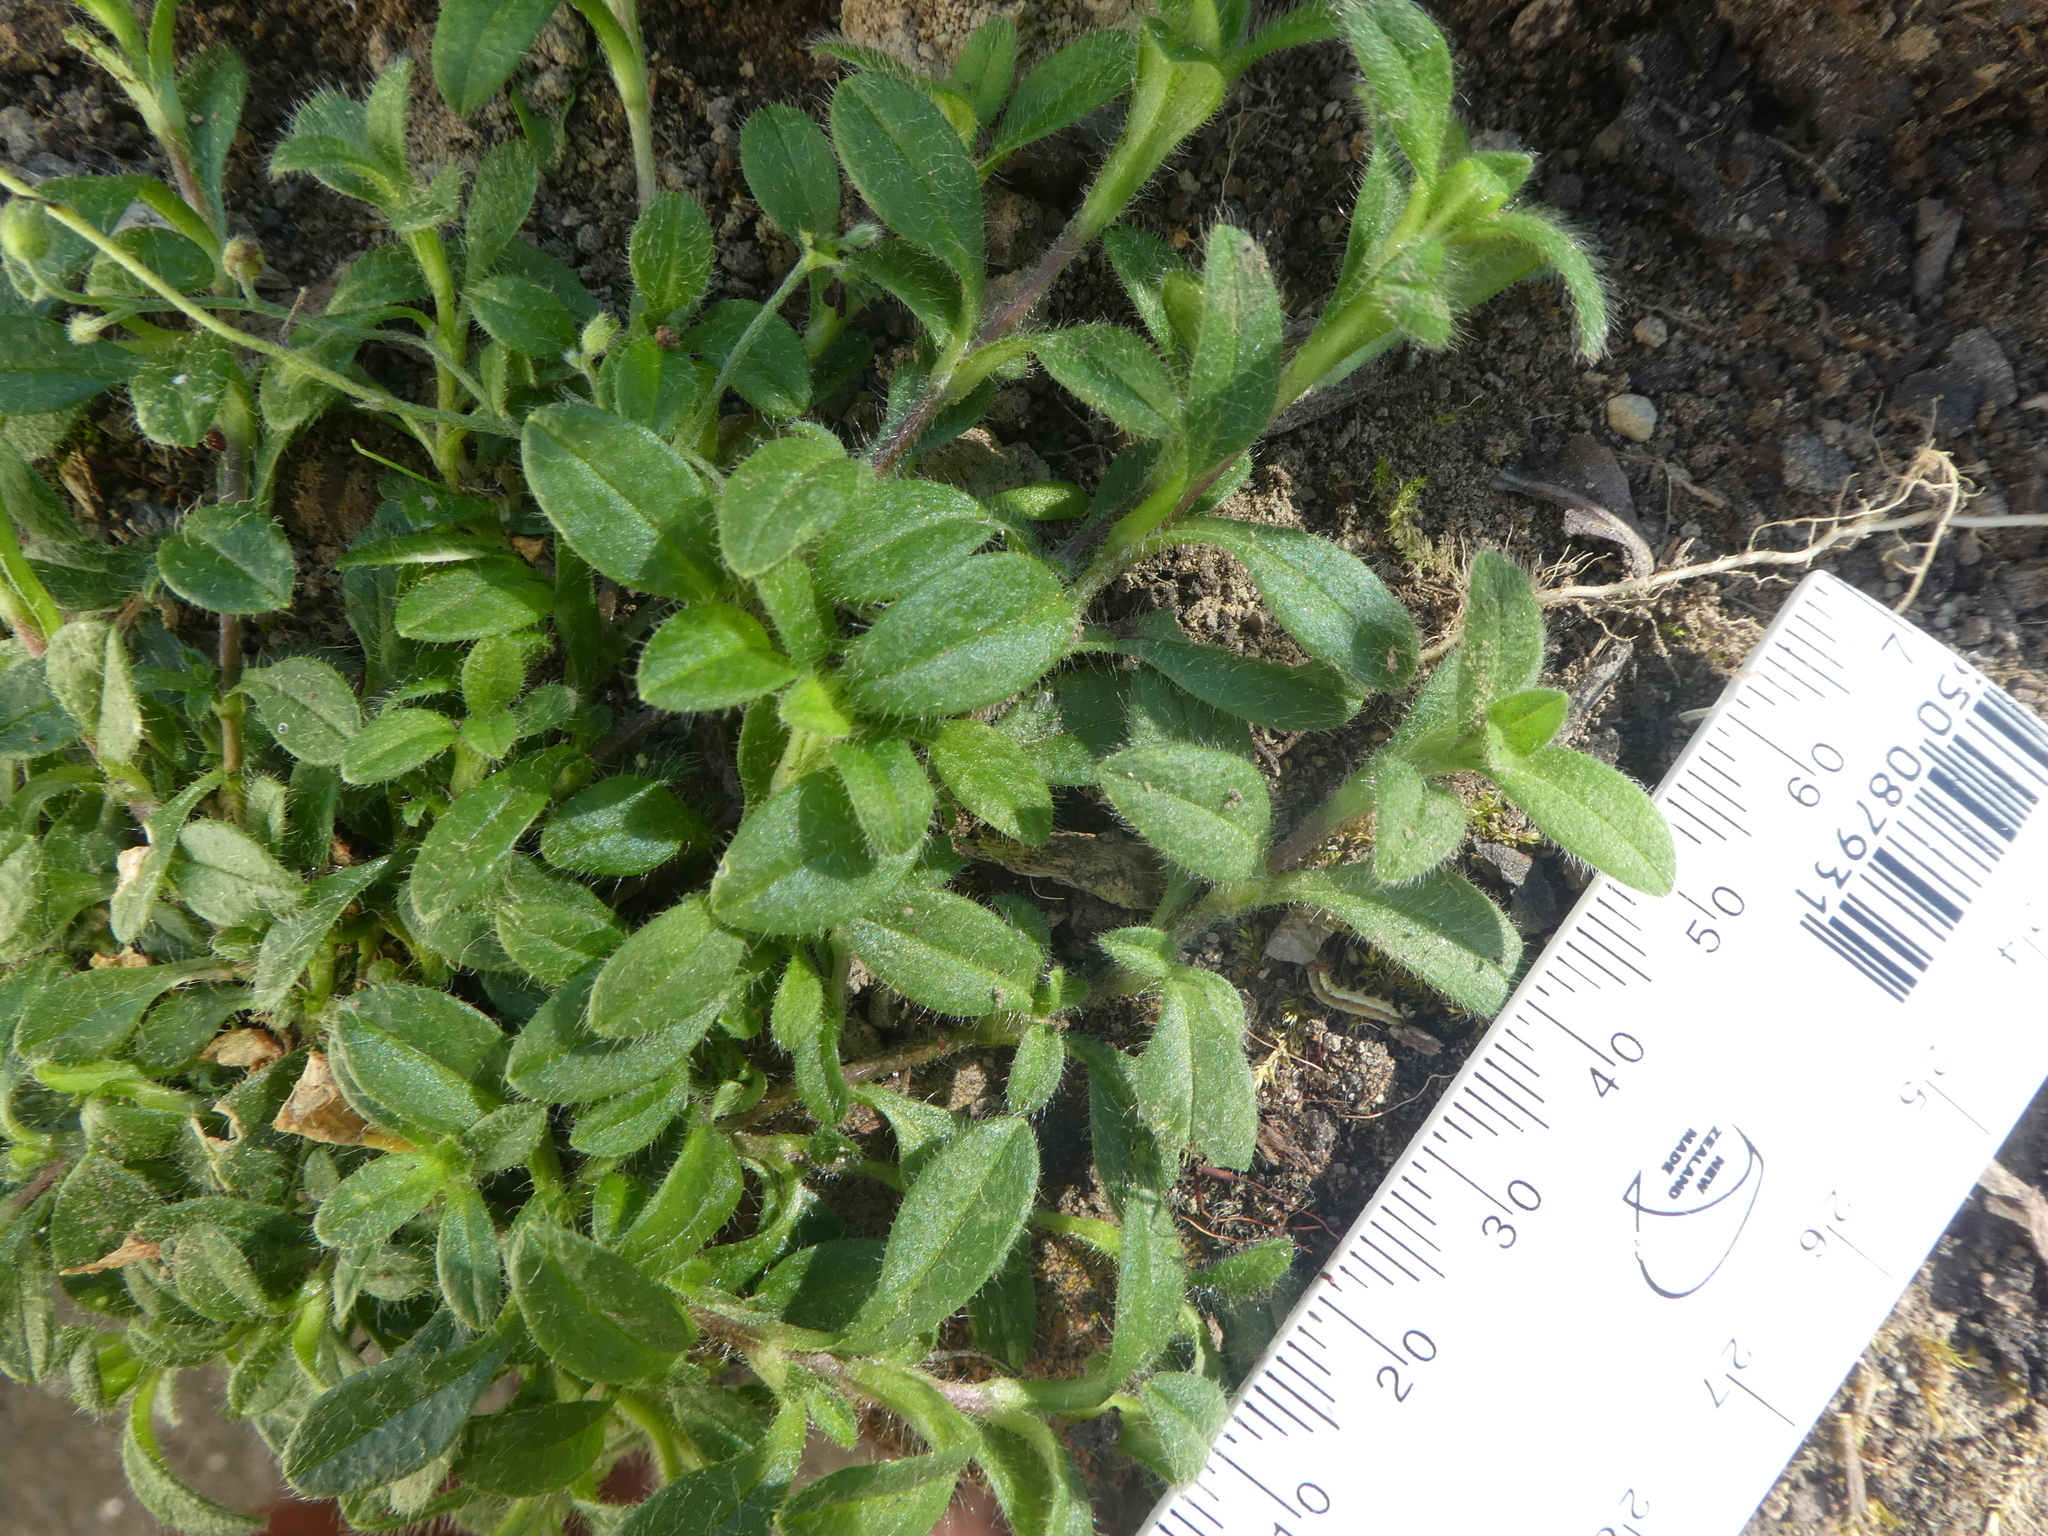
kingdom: Plantae
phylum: Tracheophyta
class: Magnoliopsida
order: Caryophyllales
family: Caryophyllaceae
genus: Cerastium
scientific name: Cerastium fontanum
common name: Common mouse-ear
